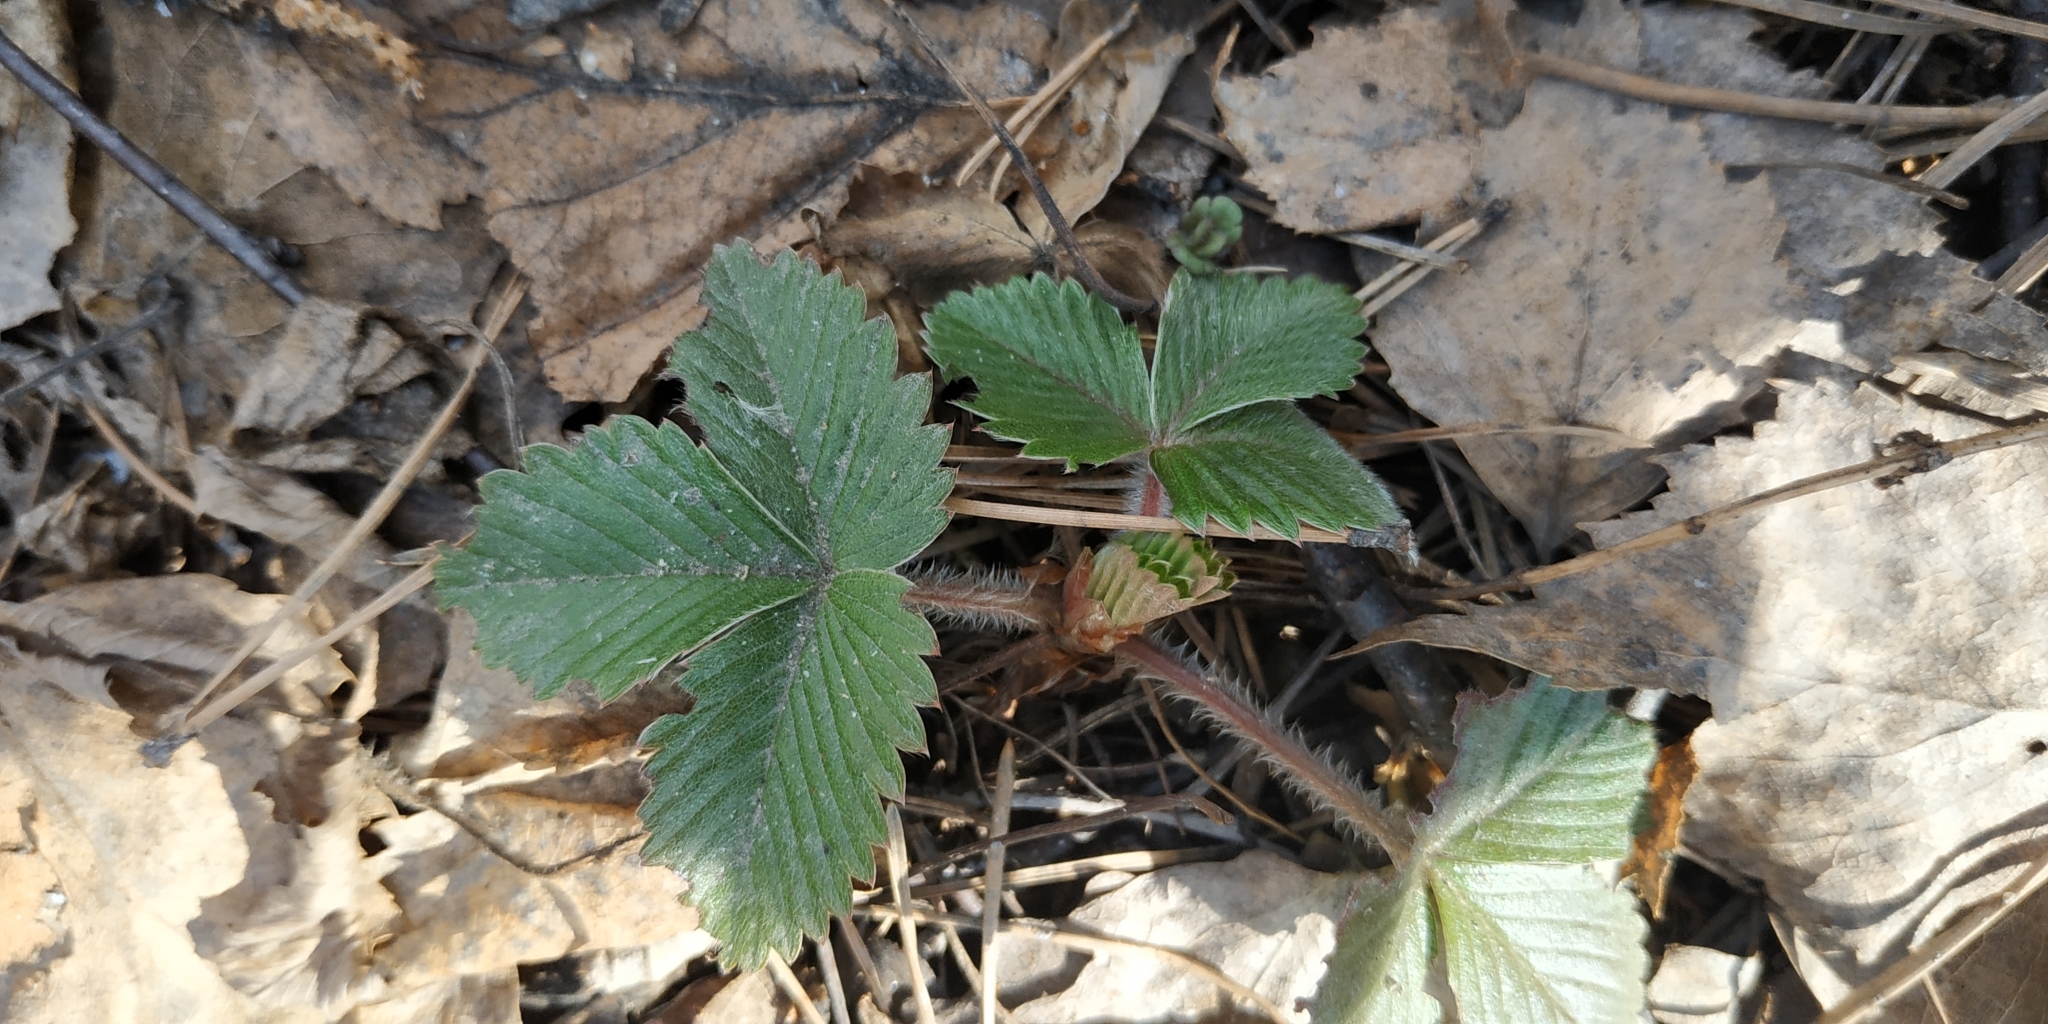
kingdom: Plantae
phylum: Tracheophyta
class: Magnoliopsida
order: Rosales
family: Rosaceae
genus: Fragaria
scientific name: Fragaria vesca
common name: Wild strawberry
